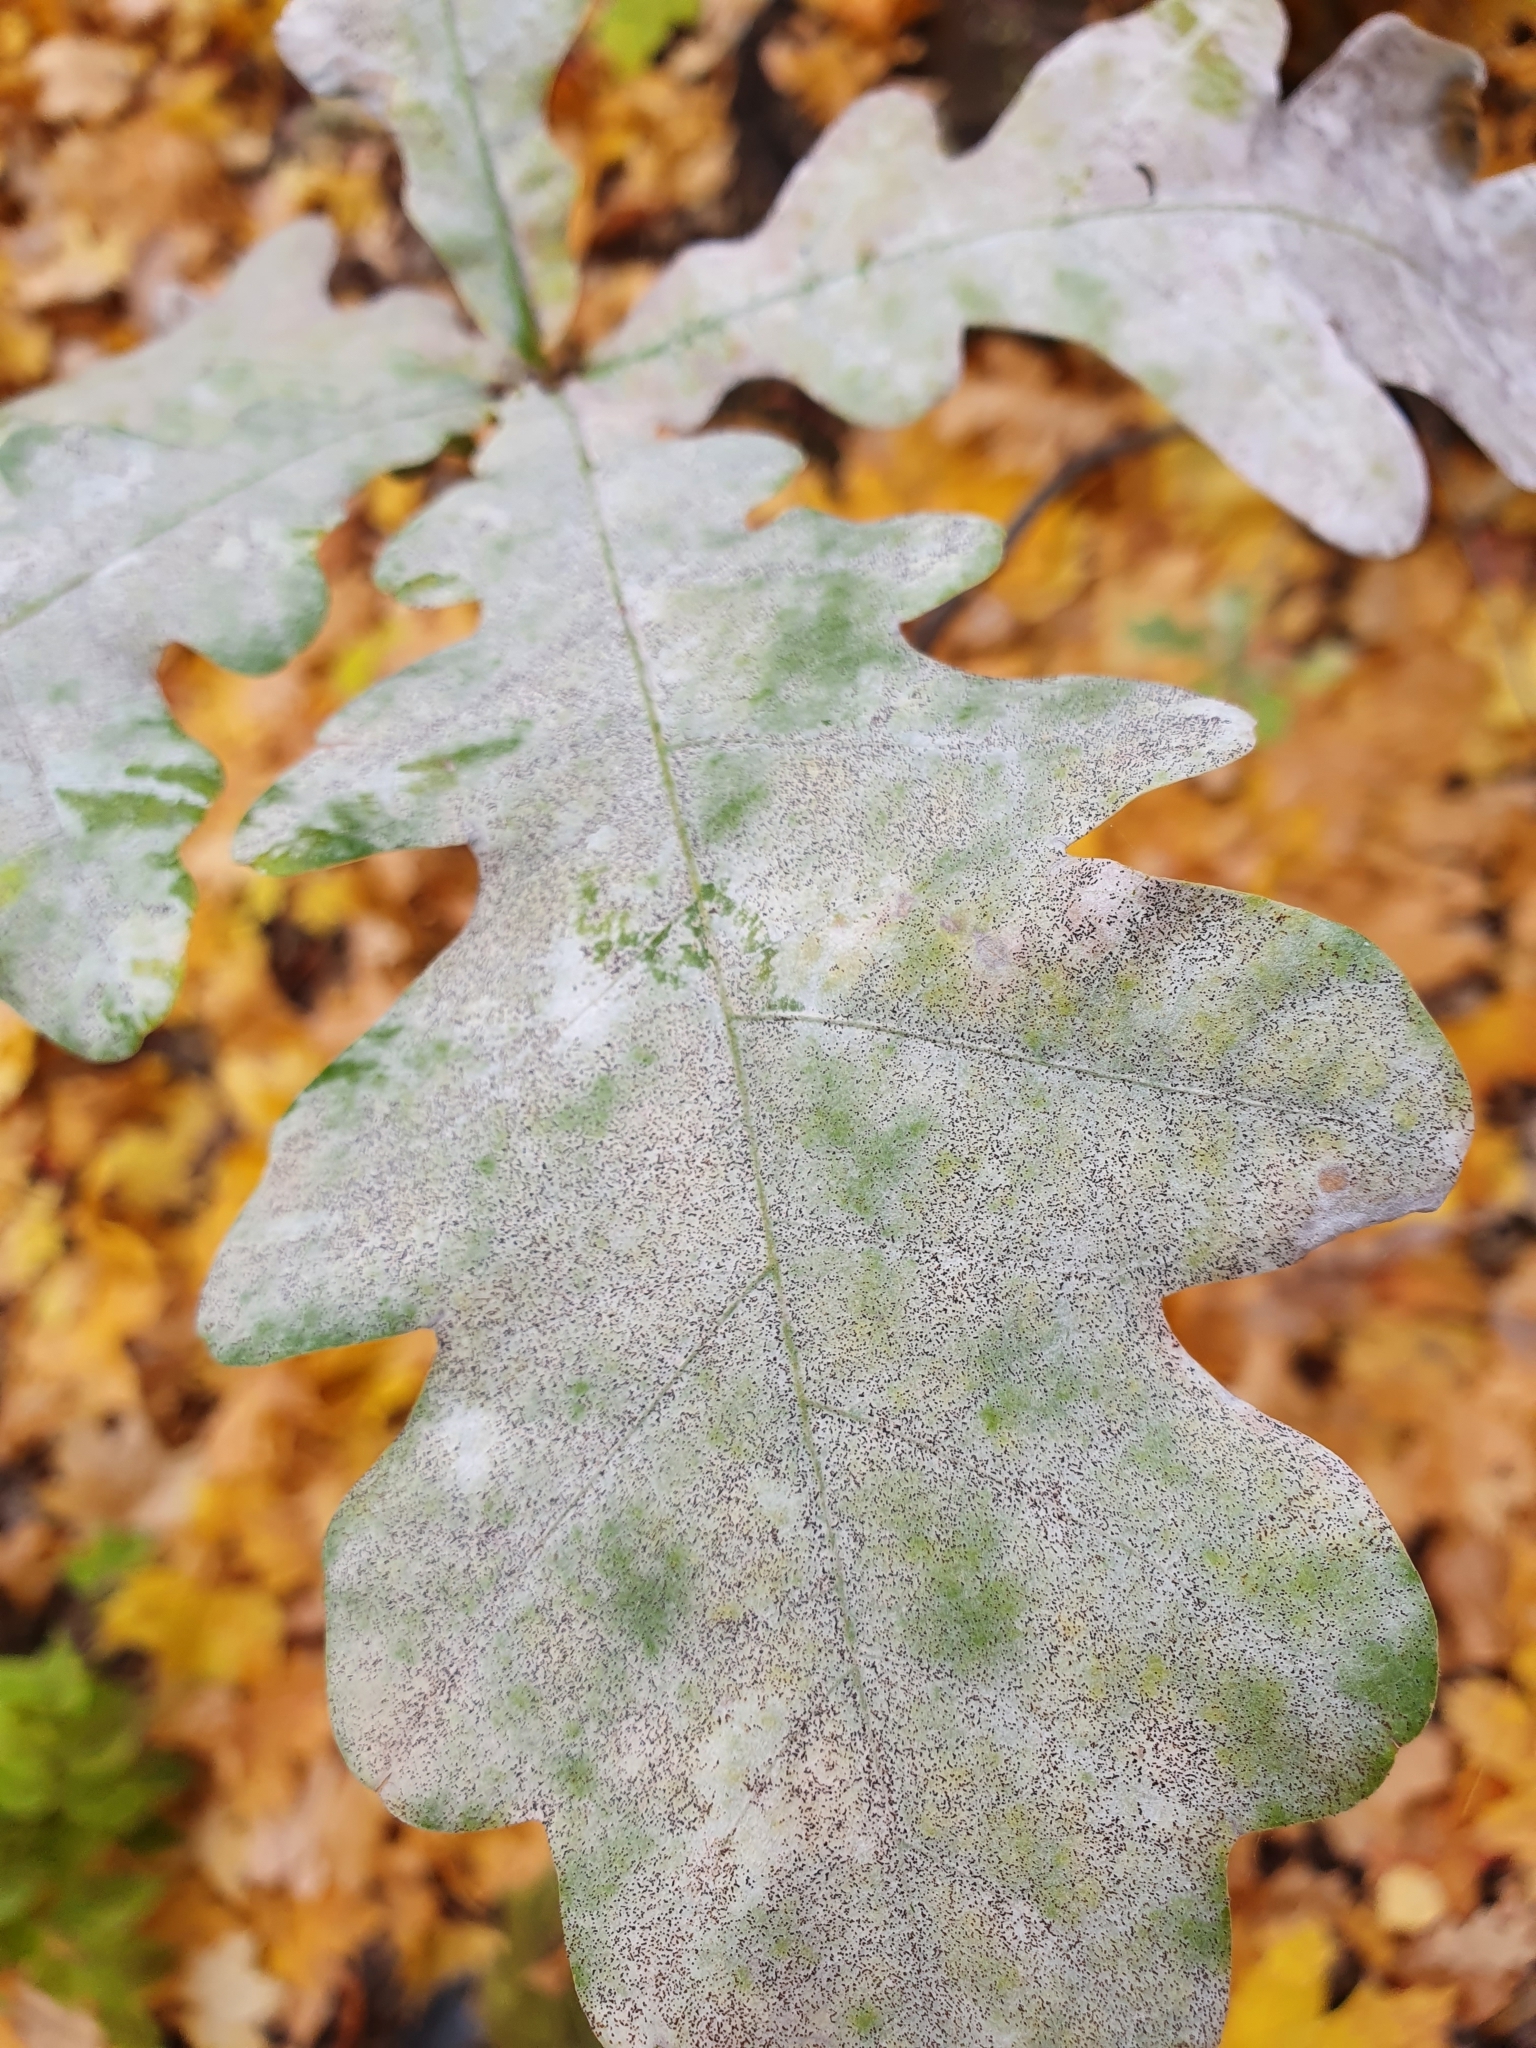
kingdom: Fungi
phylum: Ascomycota
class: Leotiomycetes
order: Helotiales
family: Erysiphaceae
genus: Erysiphe
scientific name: Erysiphe alphitoides
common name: Oak mildew
